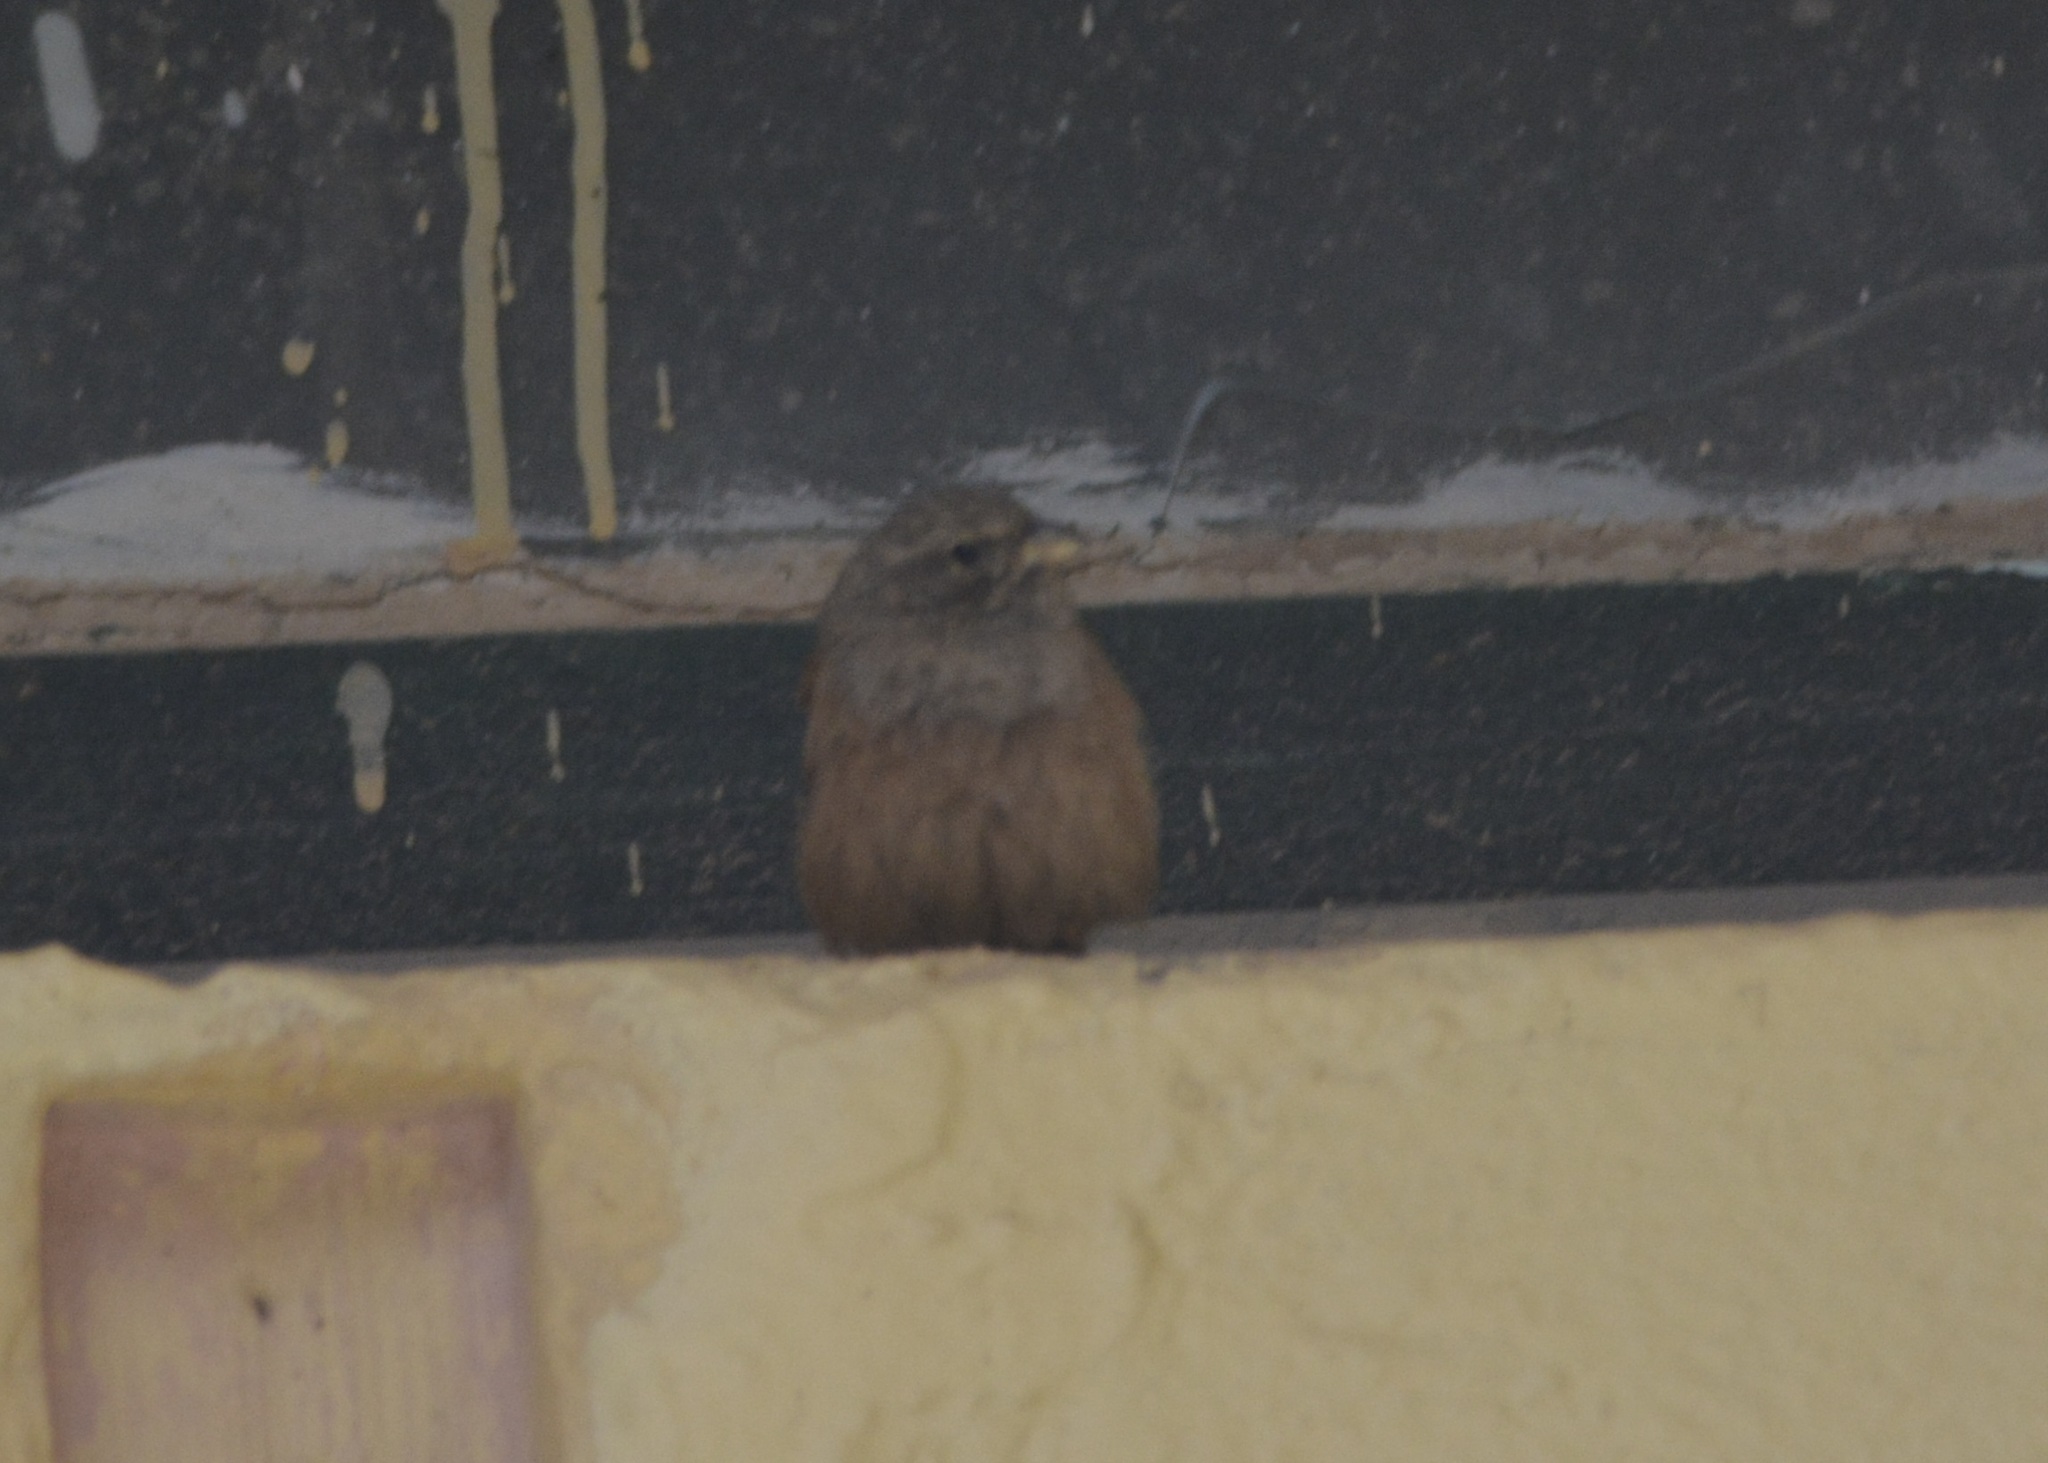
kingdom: Animalia
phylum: Chordata
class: Aves
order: Passeriformes
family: Emberizidae
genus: Emberiza
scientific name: Emberiza sahari
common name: House bunting
